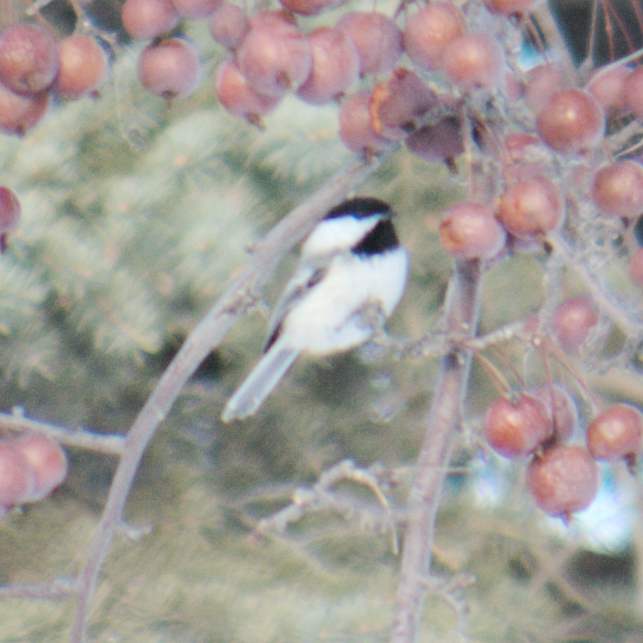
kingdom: Animalia
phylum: Chordata
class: Aves
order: Passeriformes
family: Paridae
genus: Poecile
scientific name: Poecile atricapillus
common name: Black-capped chickadee
